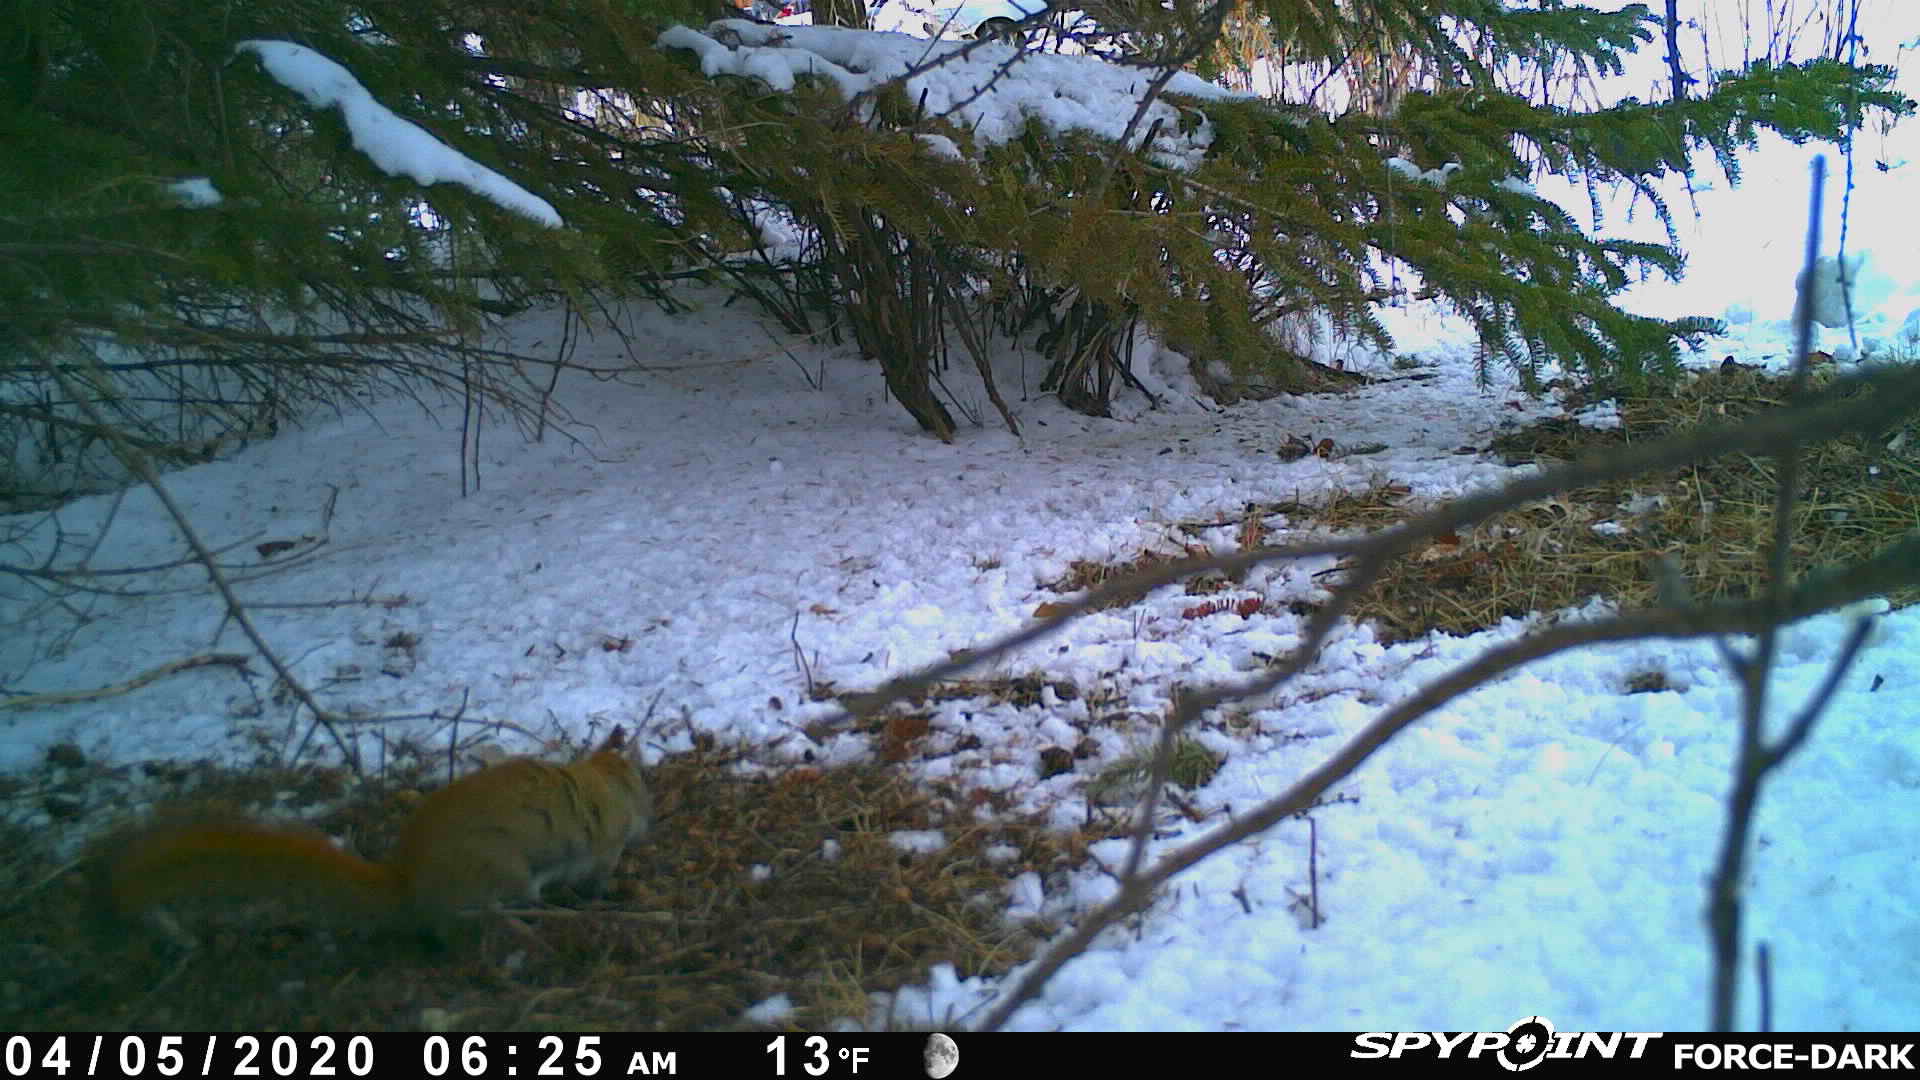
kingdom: Animalia
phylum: Chordata
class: Mammalia
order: Rodentia
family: Sciuridae
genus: Tamiasciurus
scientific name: Tamiasciurus hudsonicus
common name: Red squirrel
